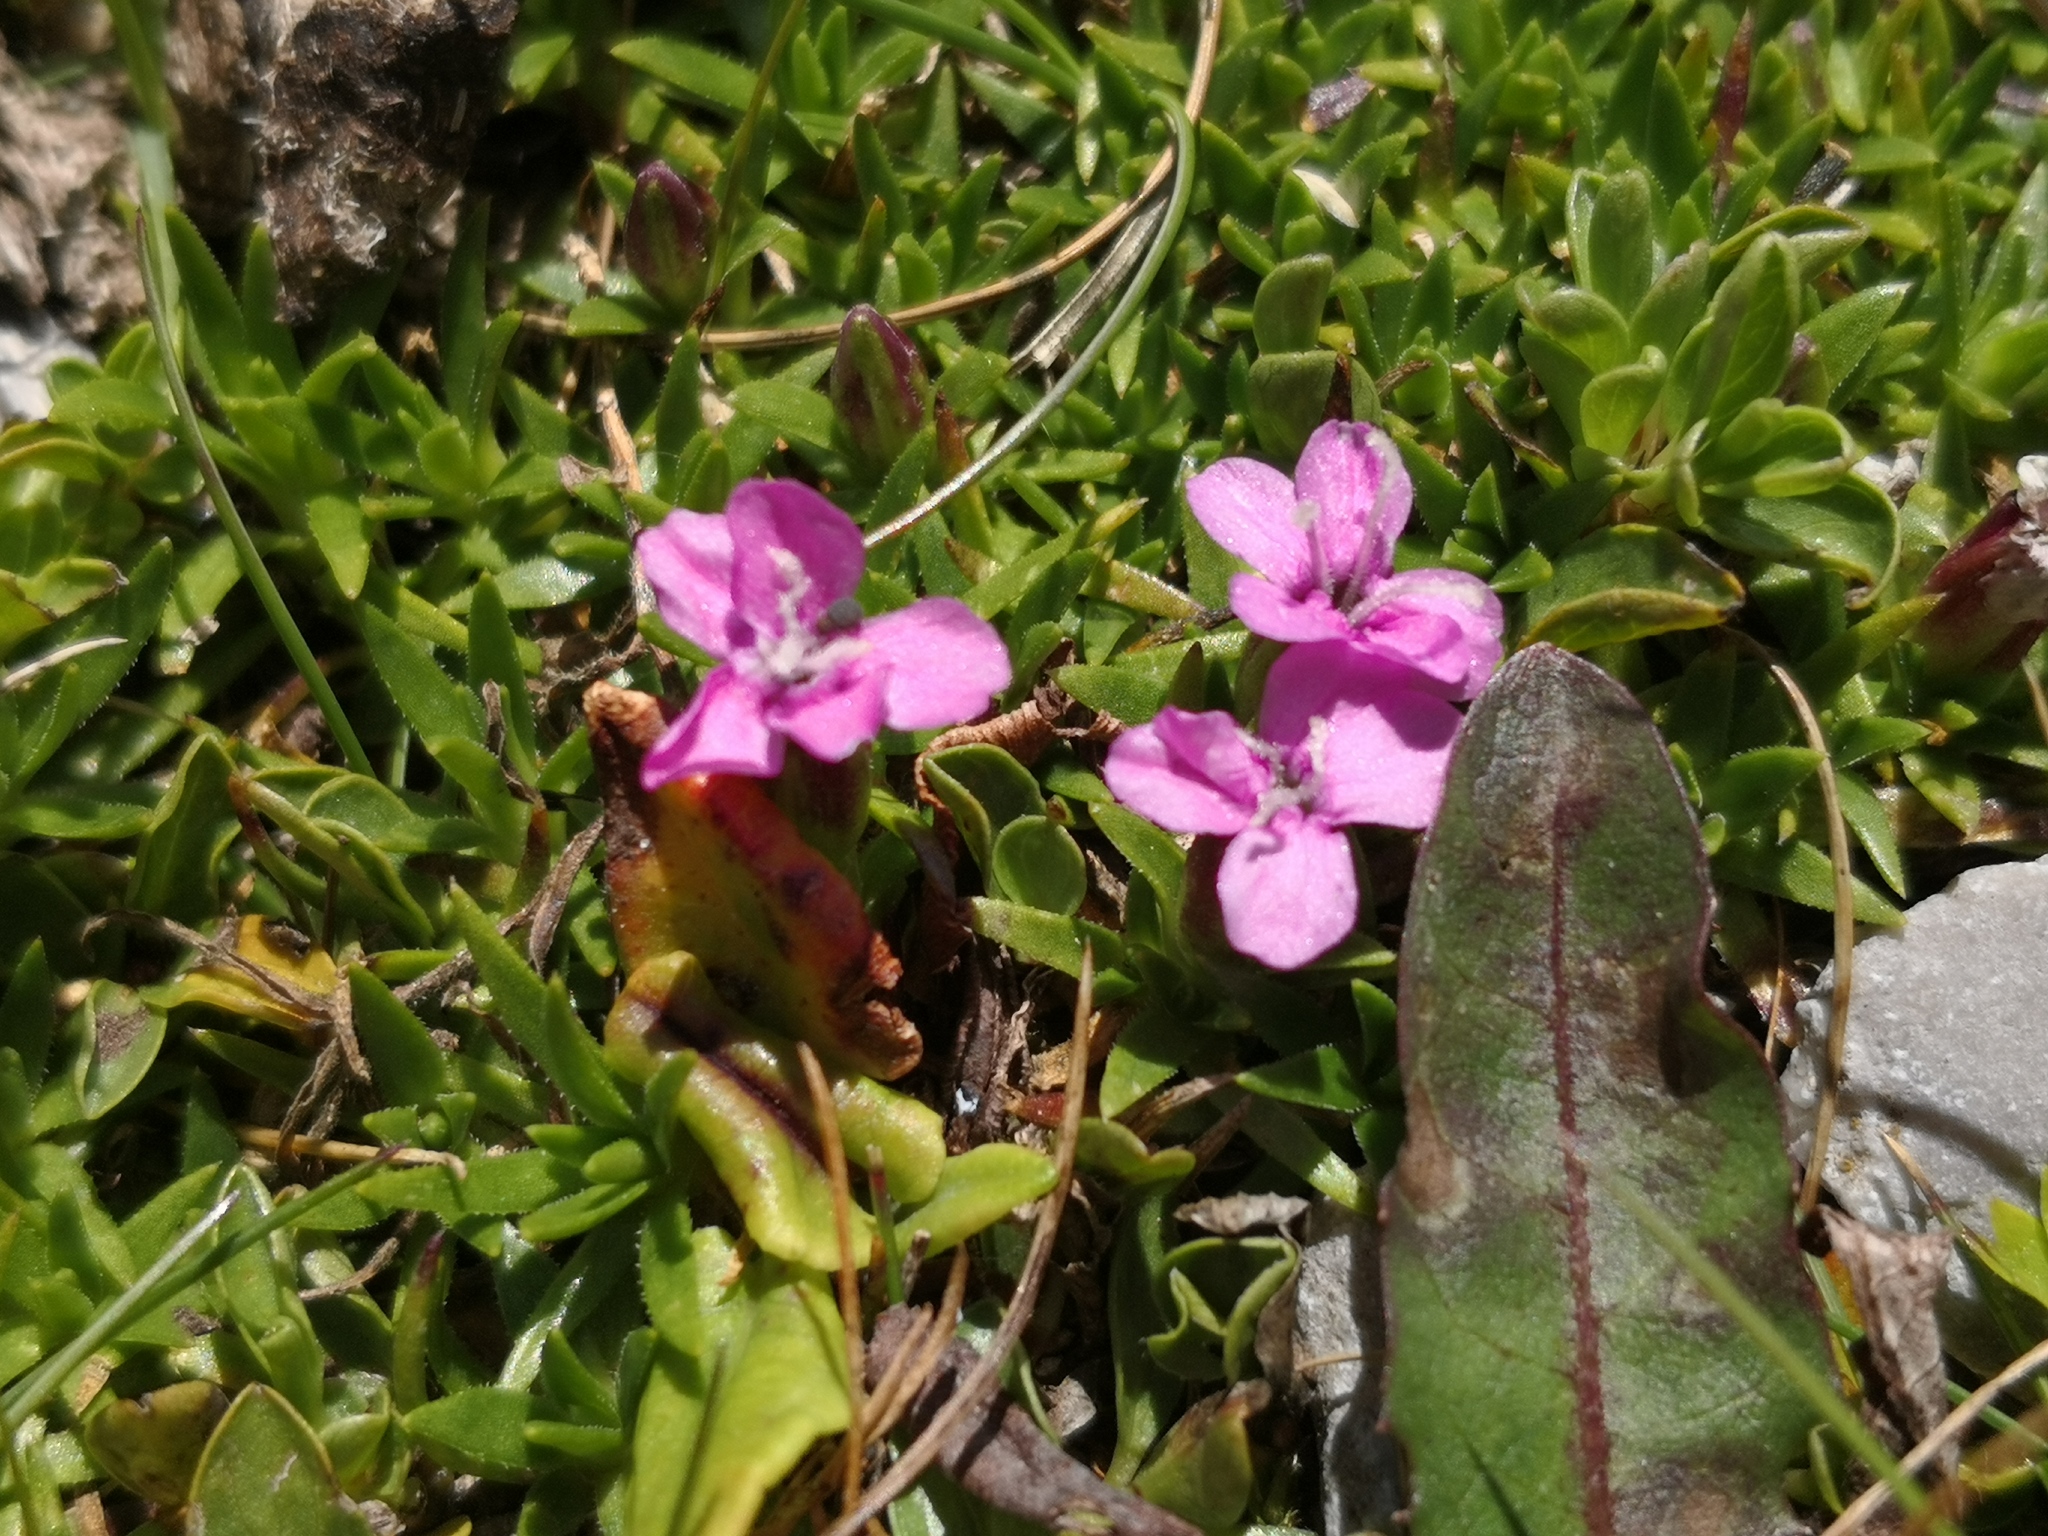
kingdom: Plantae
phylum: Tracheophyta
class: Magnoliopsida
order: Caryophyllales
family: Caryophyllaceae
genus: Silene
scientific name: Silene acaulis
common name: Moss campion
